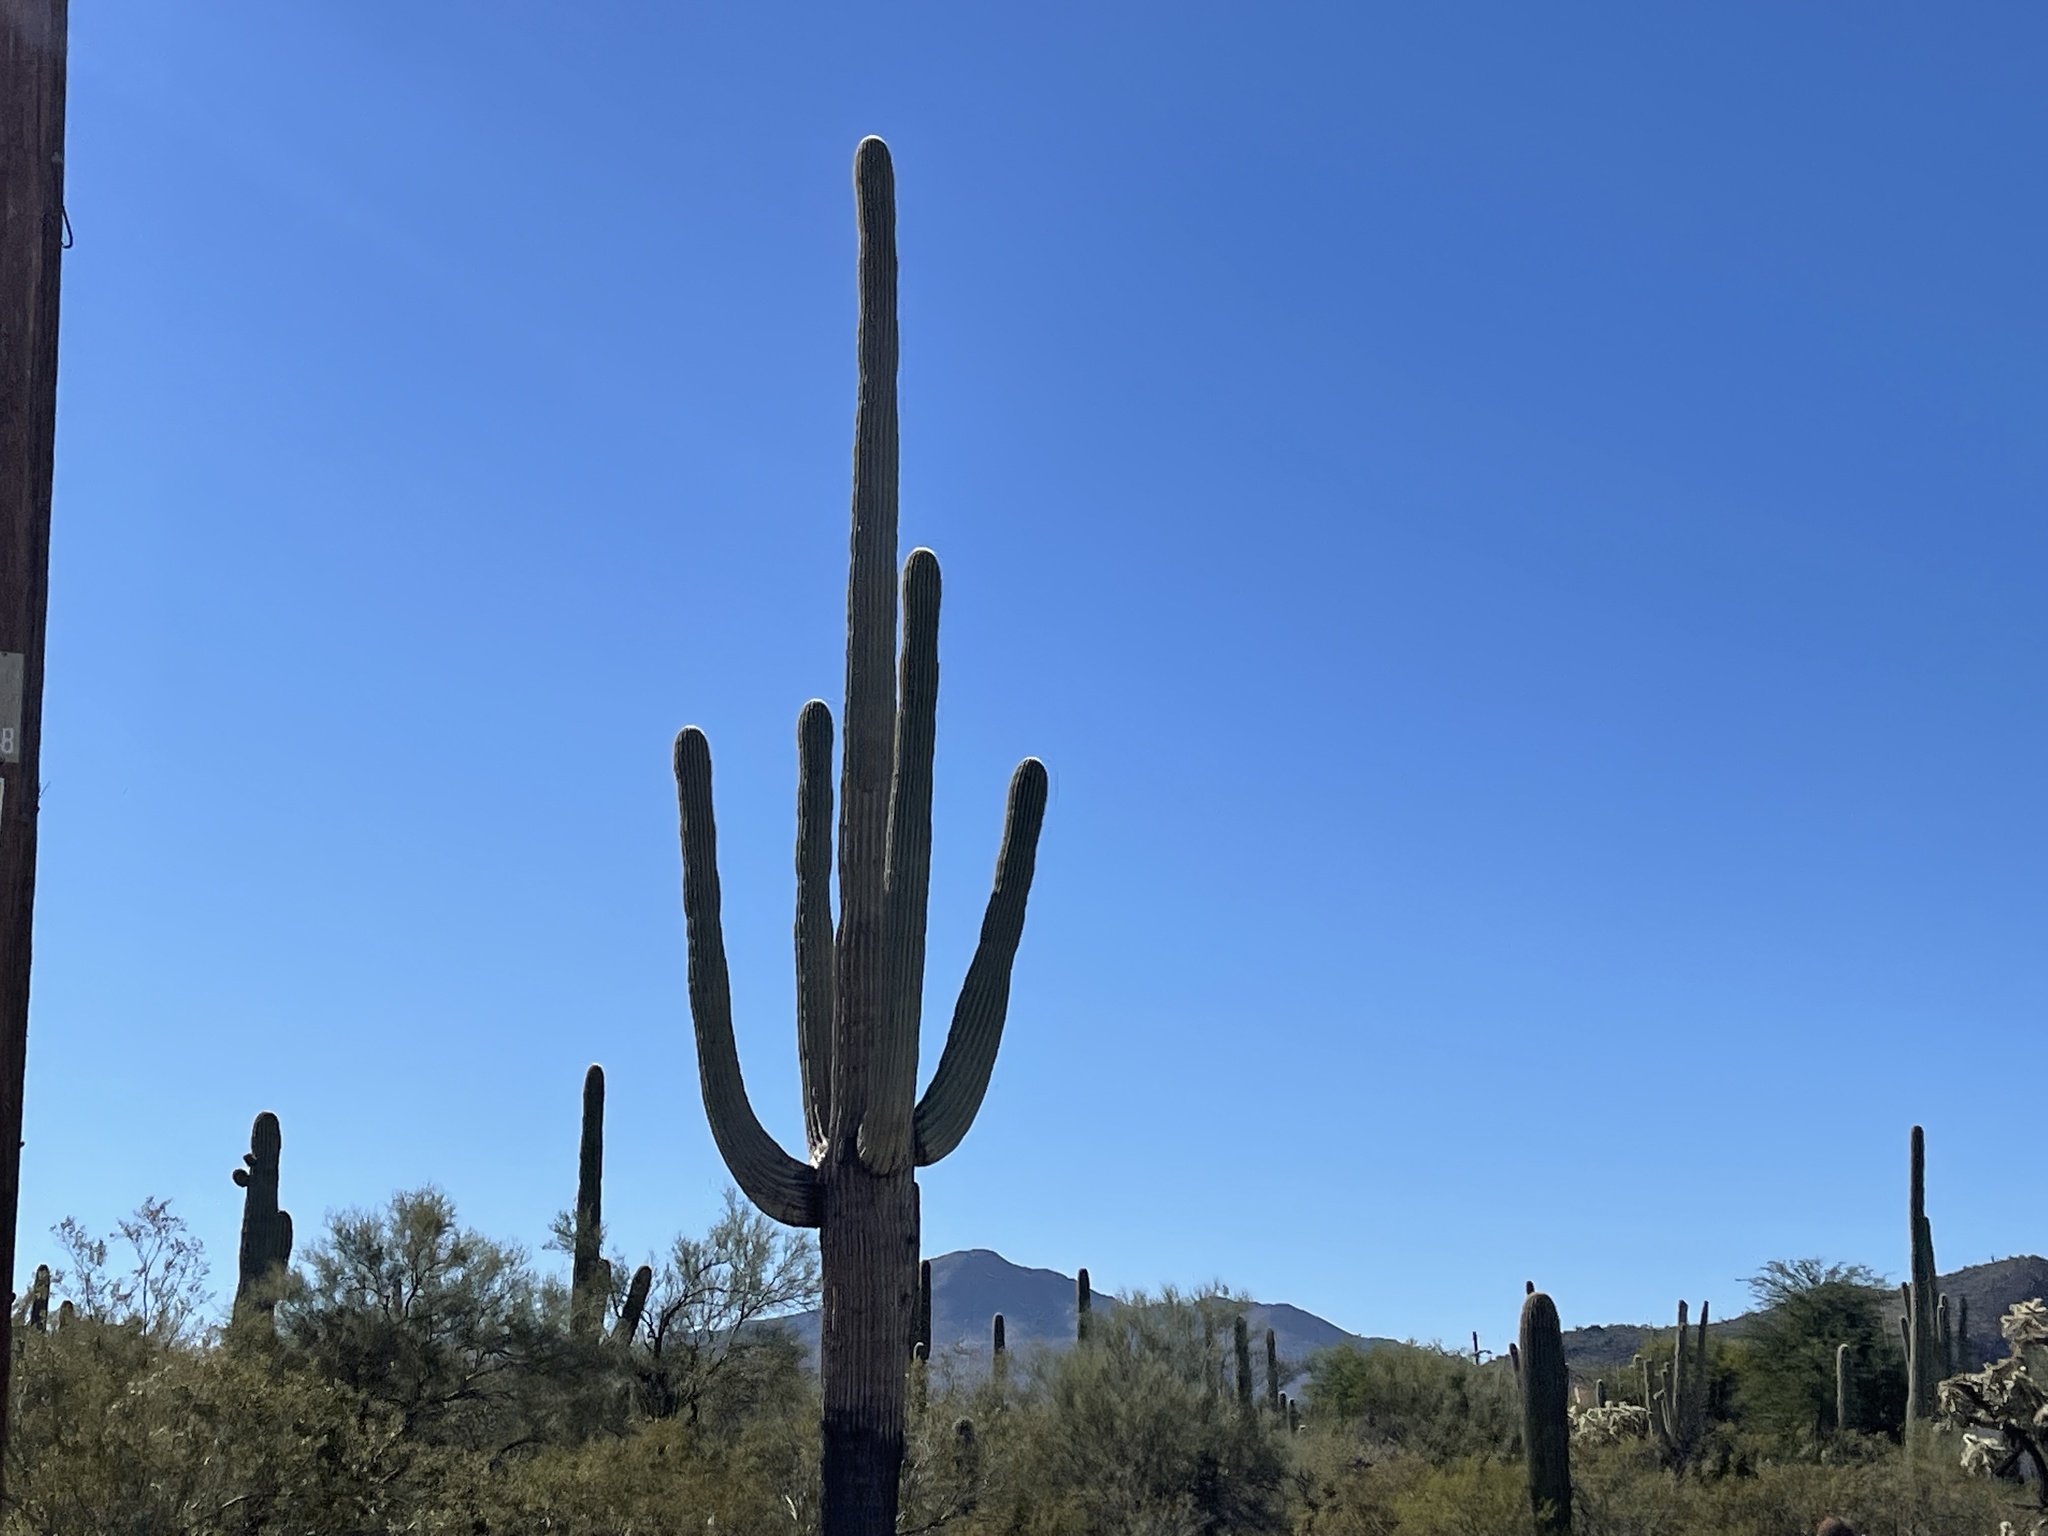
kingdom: Plantae
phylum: Tracheophyta
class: Magnoliopsida
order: Caryophyllales
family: Cactaceae
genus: Carnegiea
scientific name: Carnegiea gigantea
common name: Saguaro
